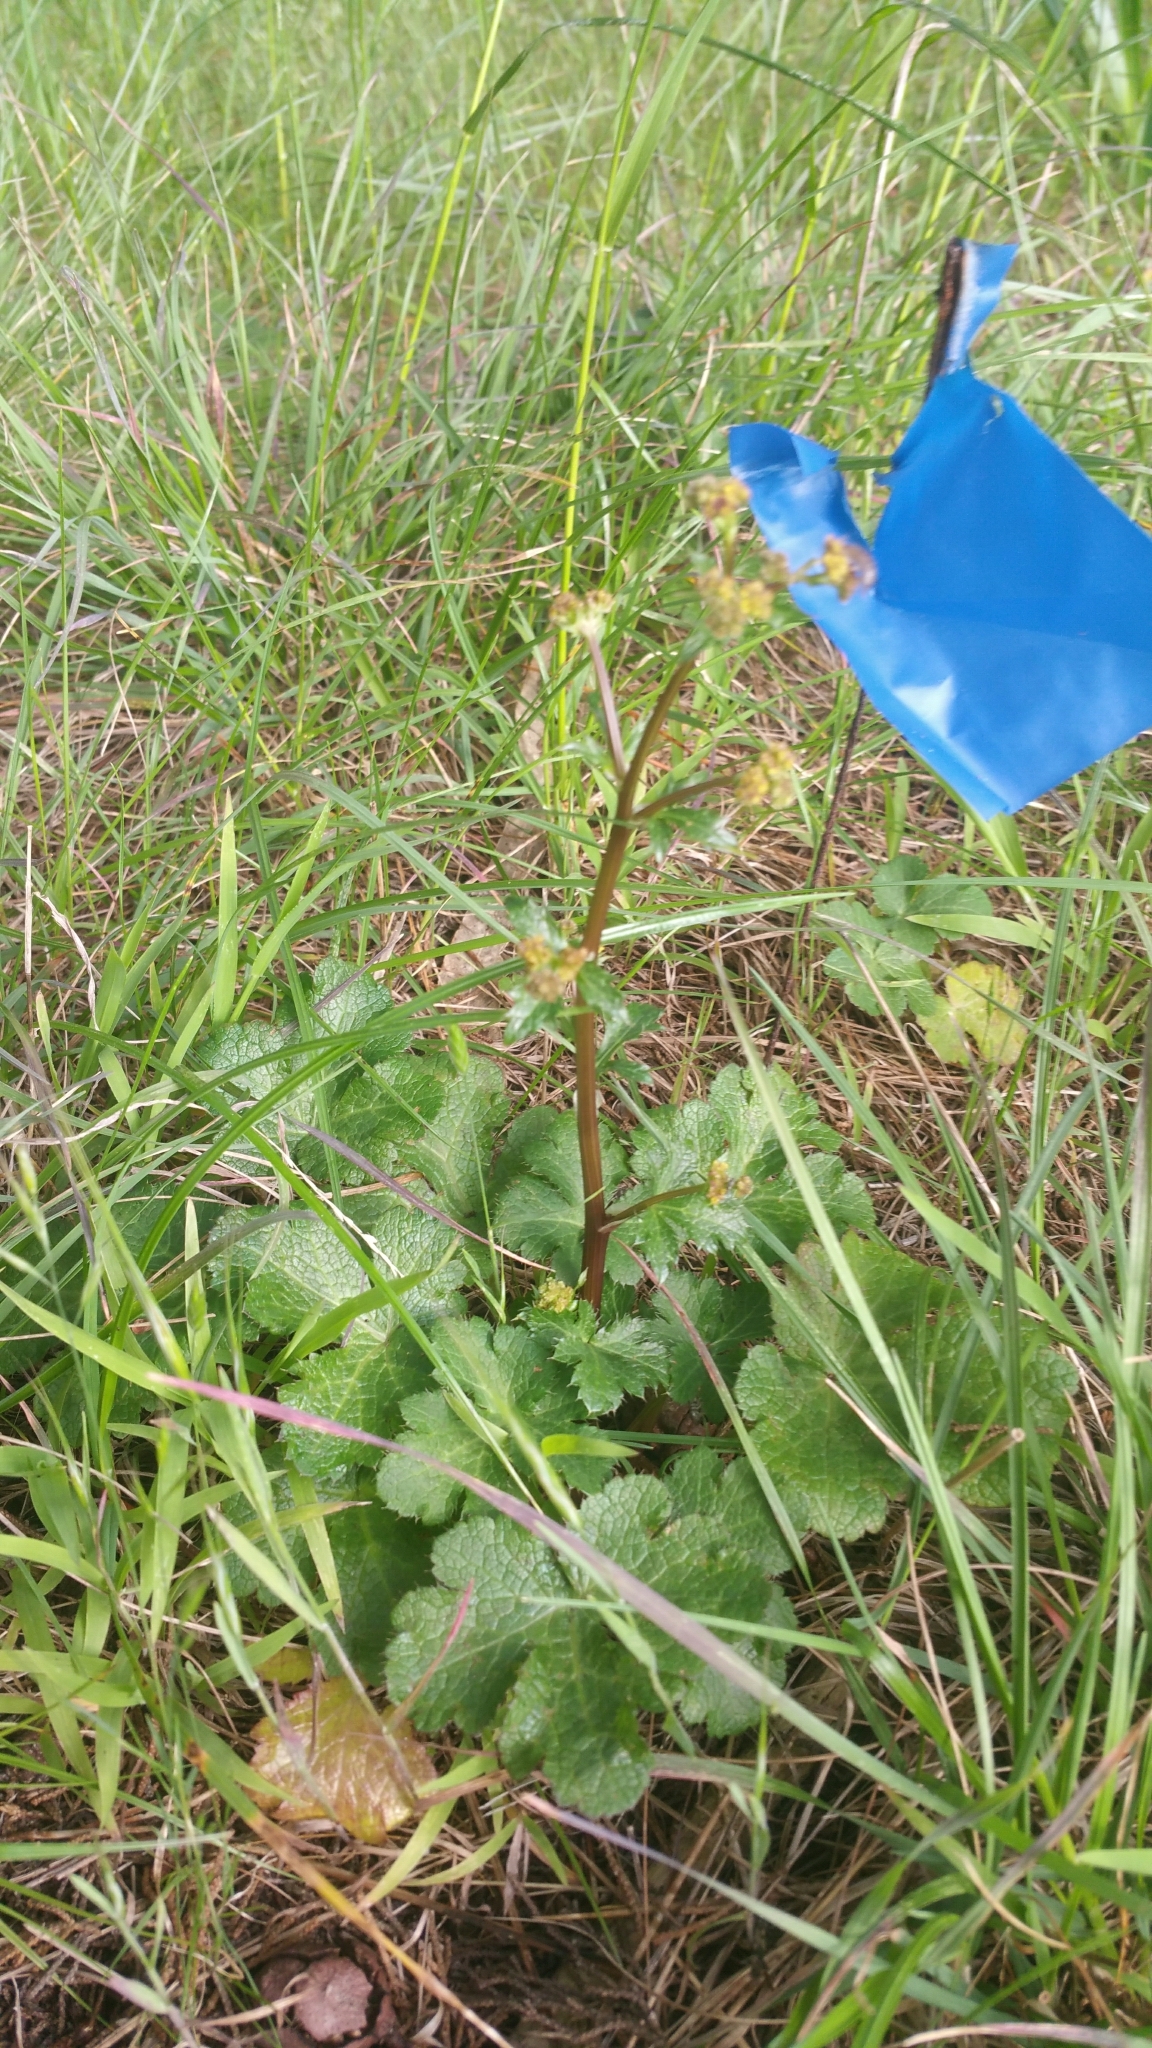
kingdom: Plantae
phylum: Tracheophyta
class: Magnoliopsida
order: Apiales
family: Apiaceae
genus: Sanicula
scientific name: Sanicula crassicaulis
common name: Western snakeroot
